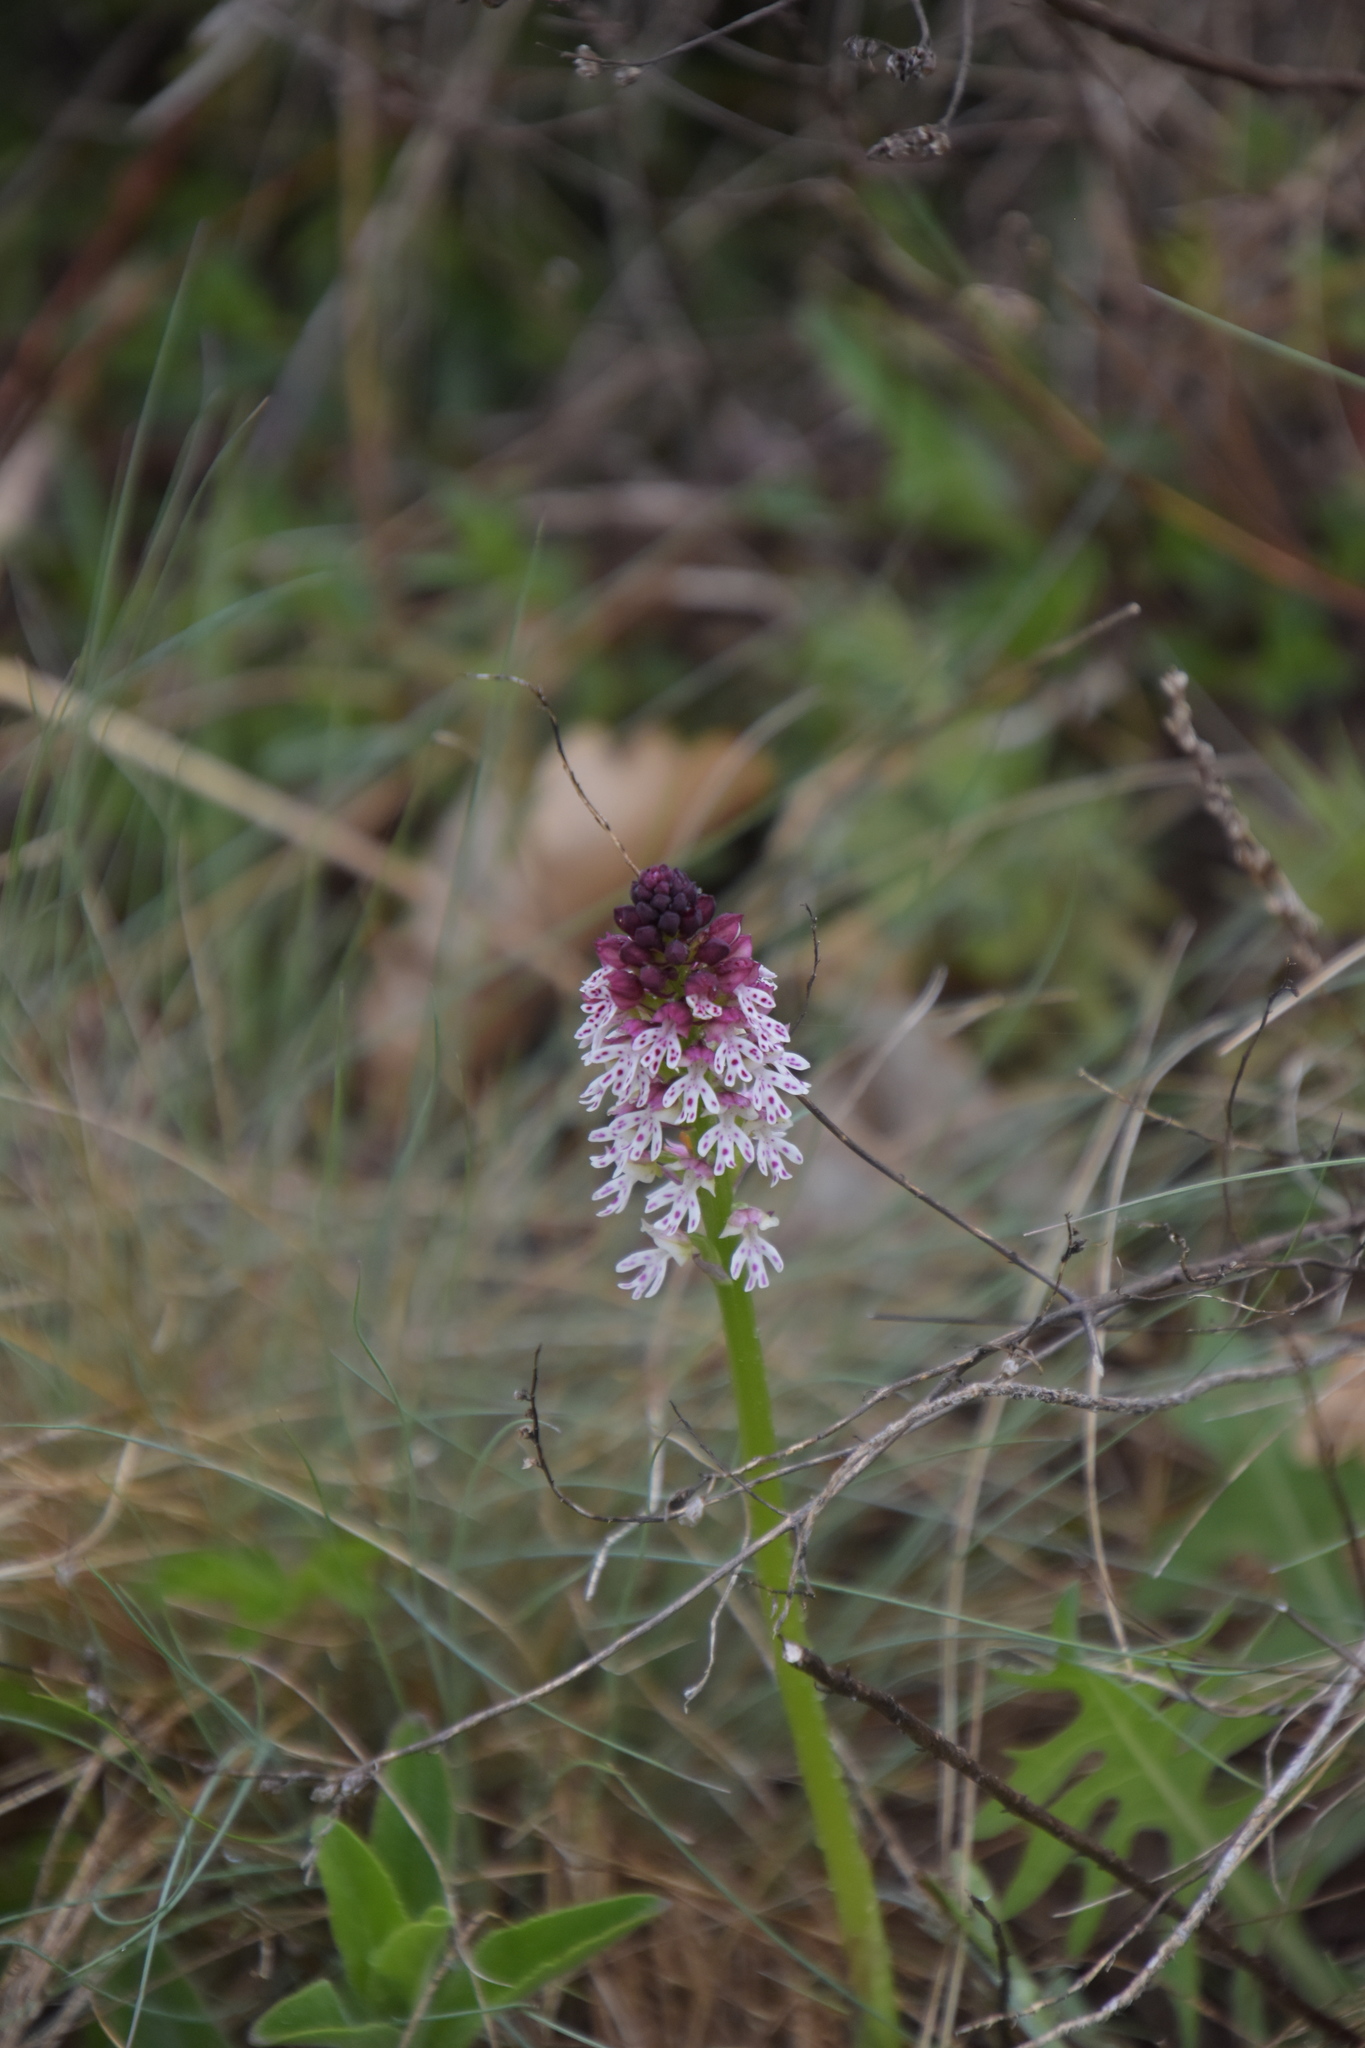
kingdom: Plantae
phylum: Tracheophyta
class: Liliopsida
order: Asparagales
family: Orchidaceae
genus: Neotinea
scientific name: Neotinea ustulata
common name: Burnt orchid
